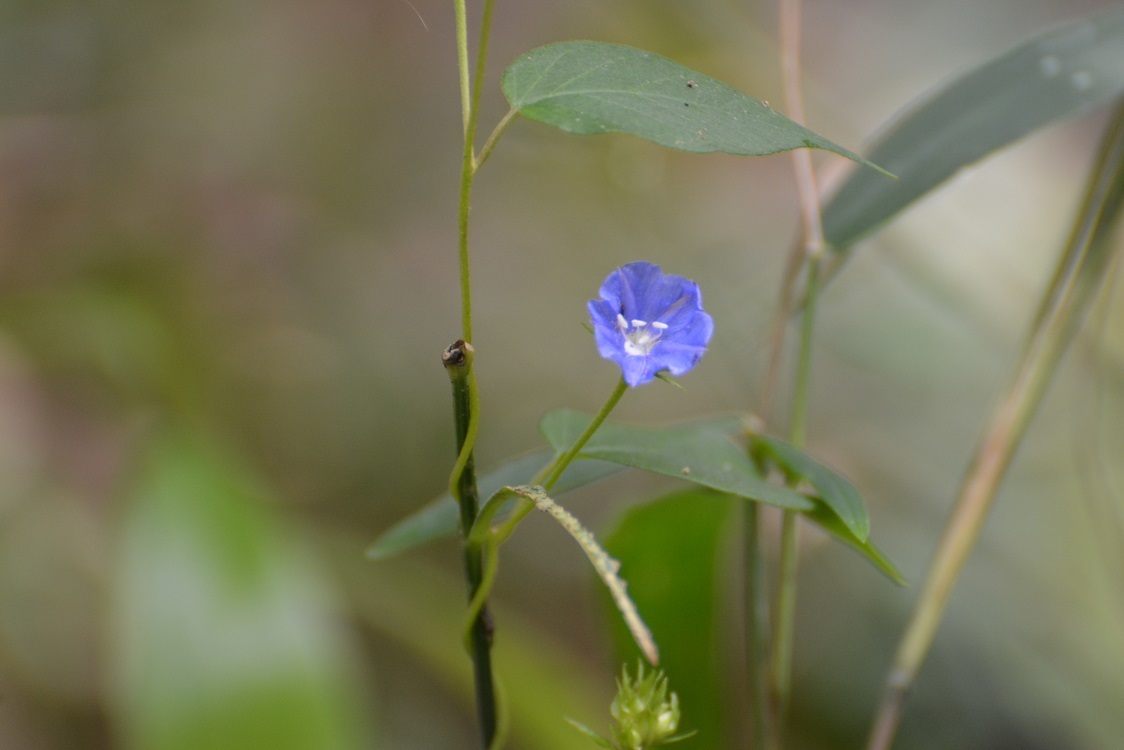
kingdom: Plantae
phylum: Tracheophyta
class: Magnoliopsida
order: Solanales
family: Convolvulaceae
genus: Jacquemontia
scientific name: Jacquemontia pentanthos
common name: Skyblue clustervine
